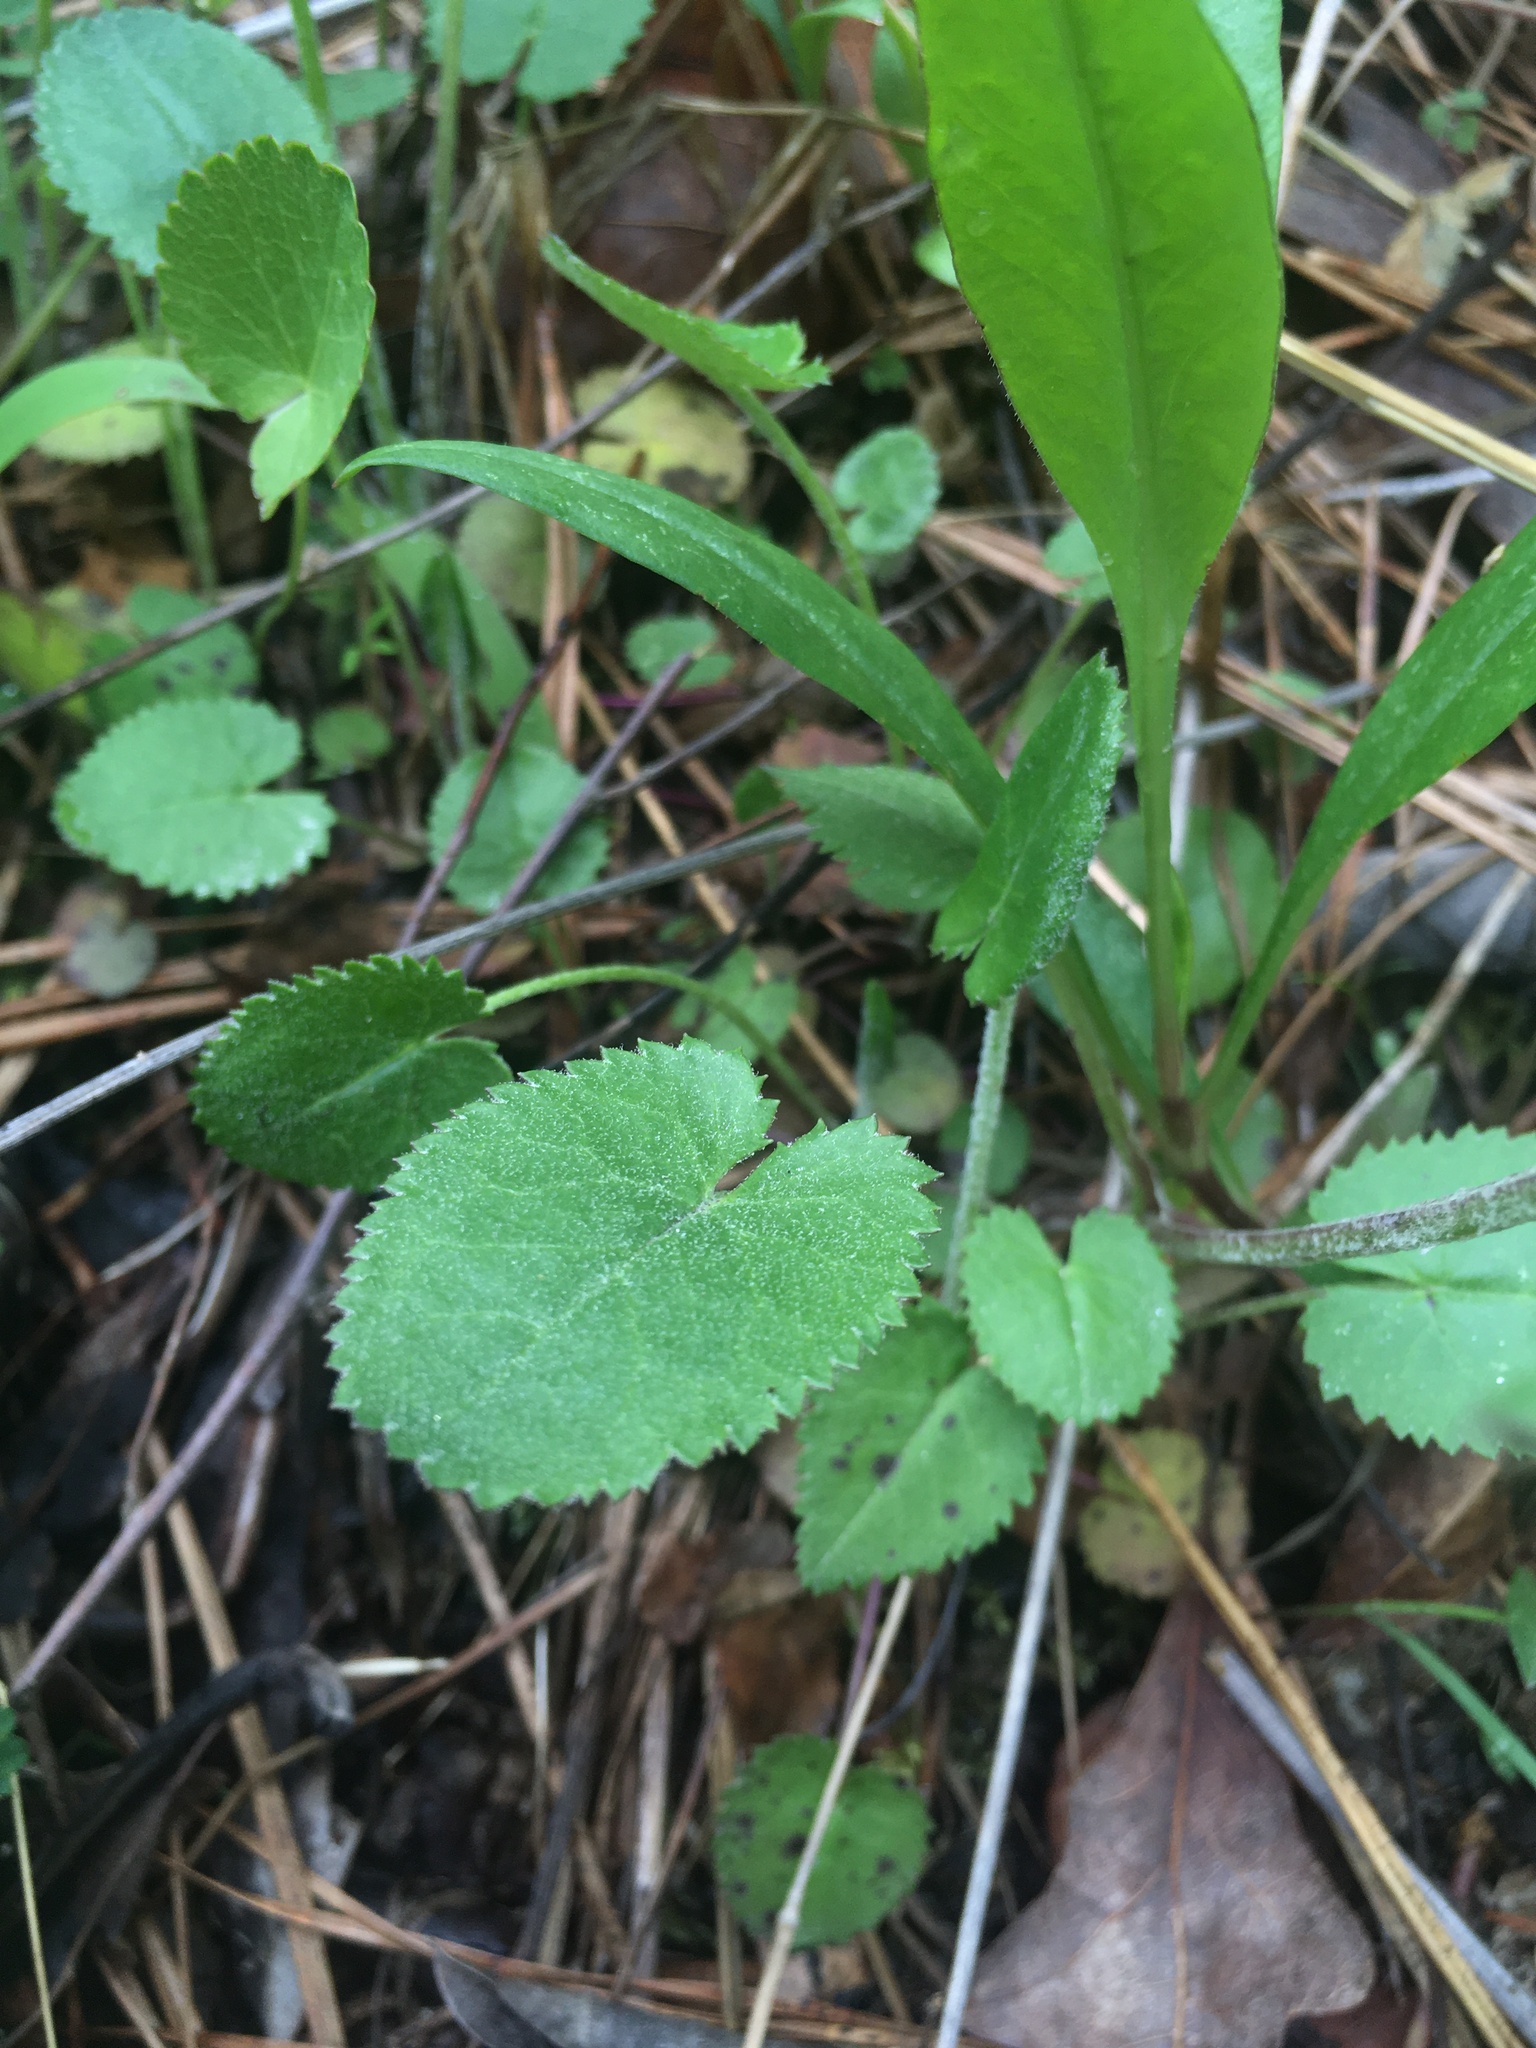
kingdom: Plantae
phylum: Tracheophyta
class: Magnoliopsida
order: Asterales
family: Asteraceae
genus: Packera
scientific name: Packera serpenticola
